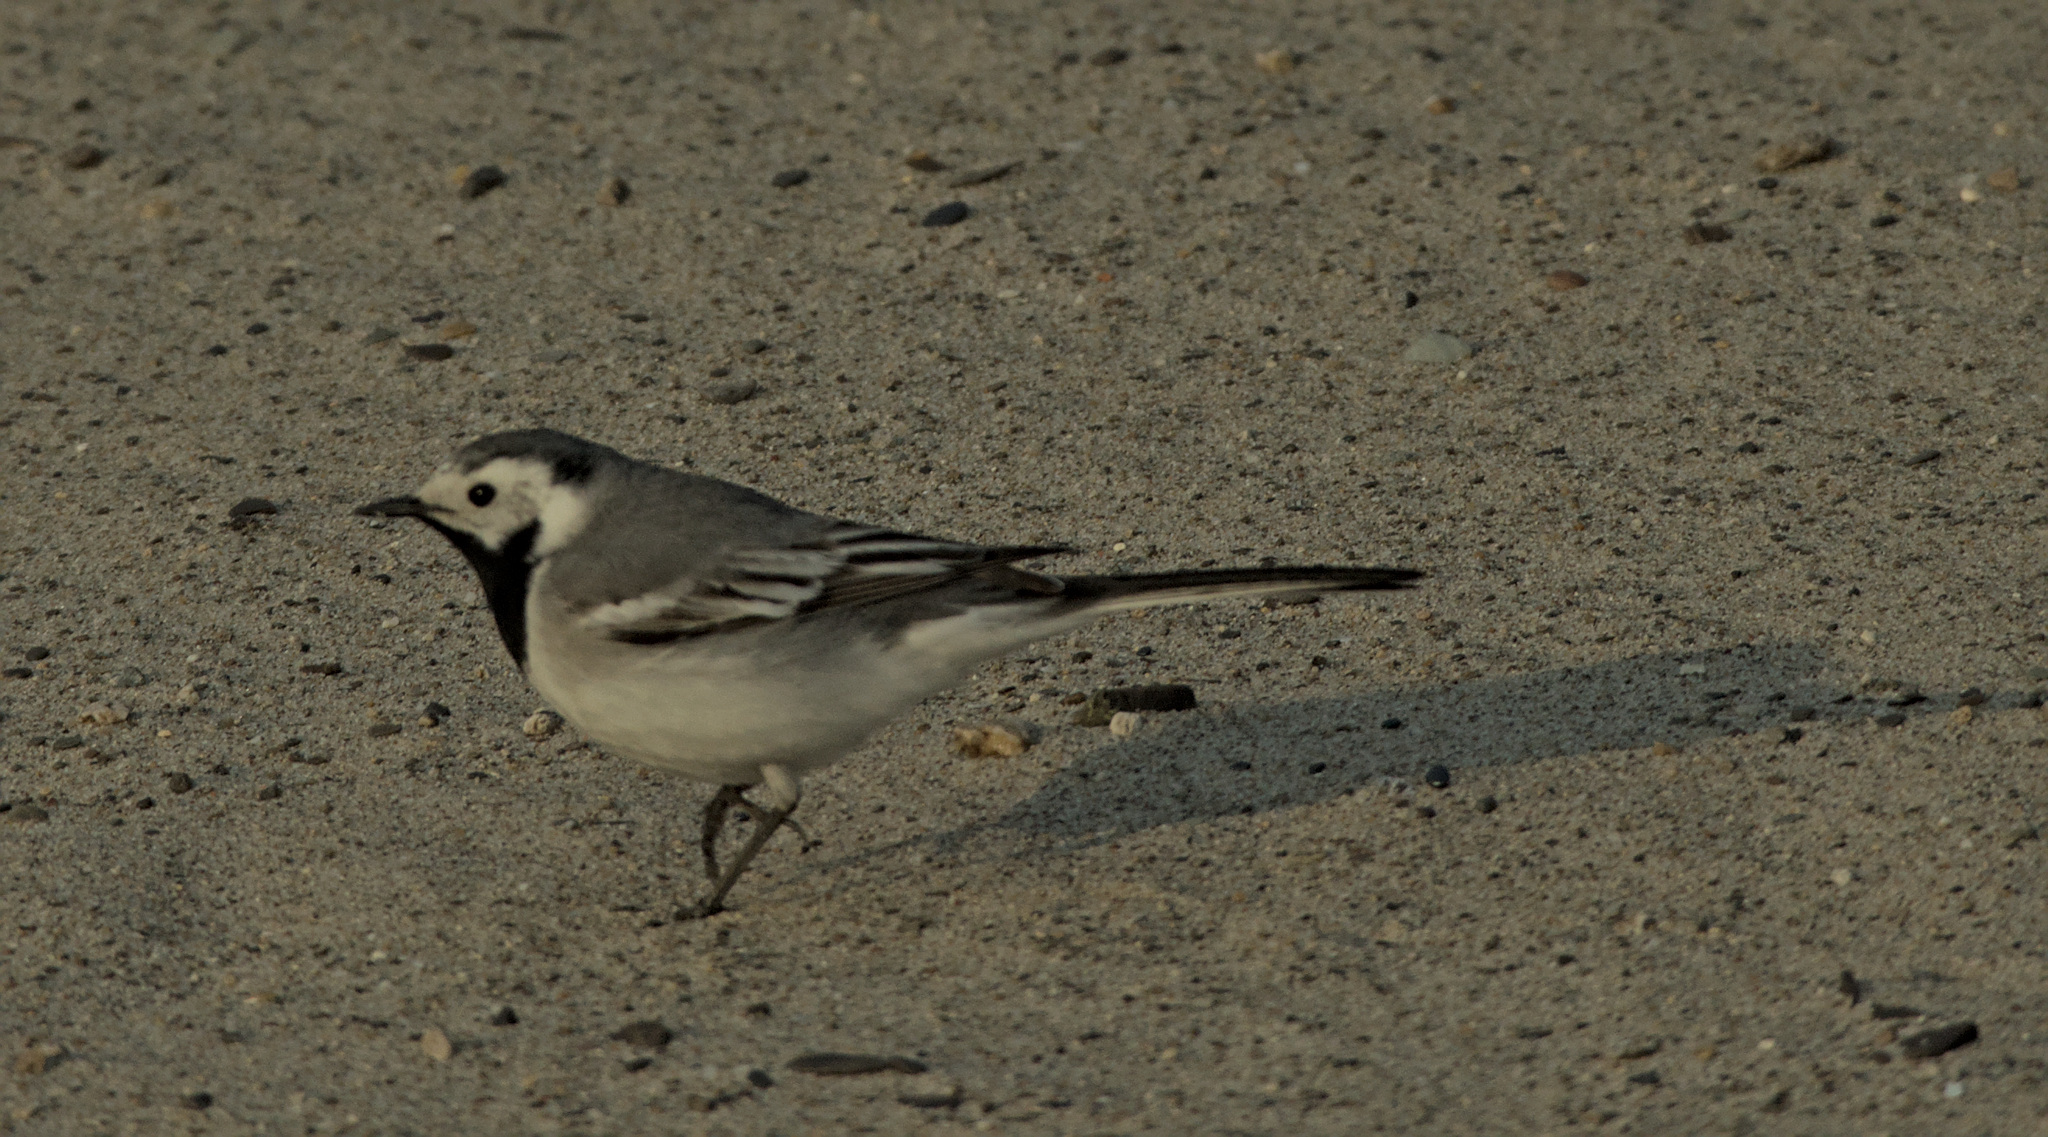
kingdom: Animalia
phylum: Chordata
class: Aves
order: Passeriformes
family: Motacillidae
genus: Motacilla
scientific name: Motacilla alba
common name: White wagtail
